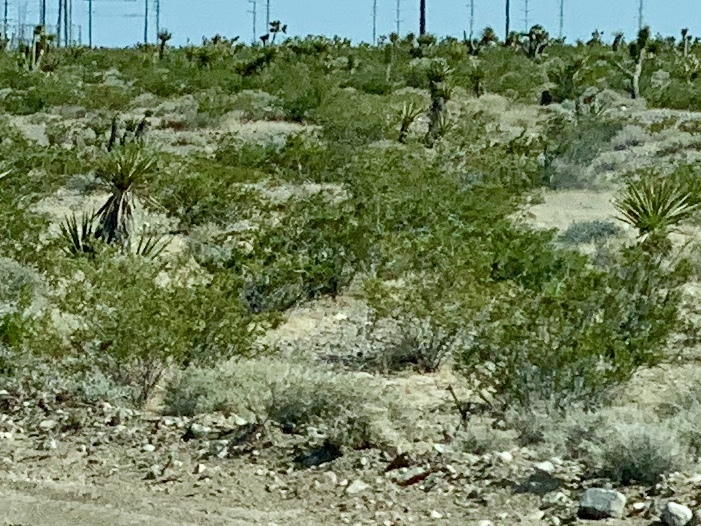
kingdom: Plantae
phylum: Tracheophyta
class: Magnoliopsida
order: Zygophyllales
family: Zygophyllaceae
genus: Larrea
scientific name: Larrea tridentata
